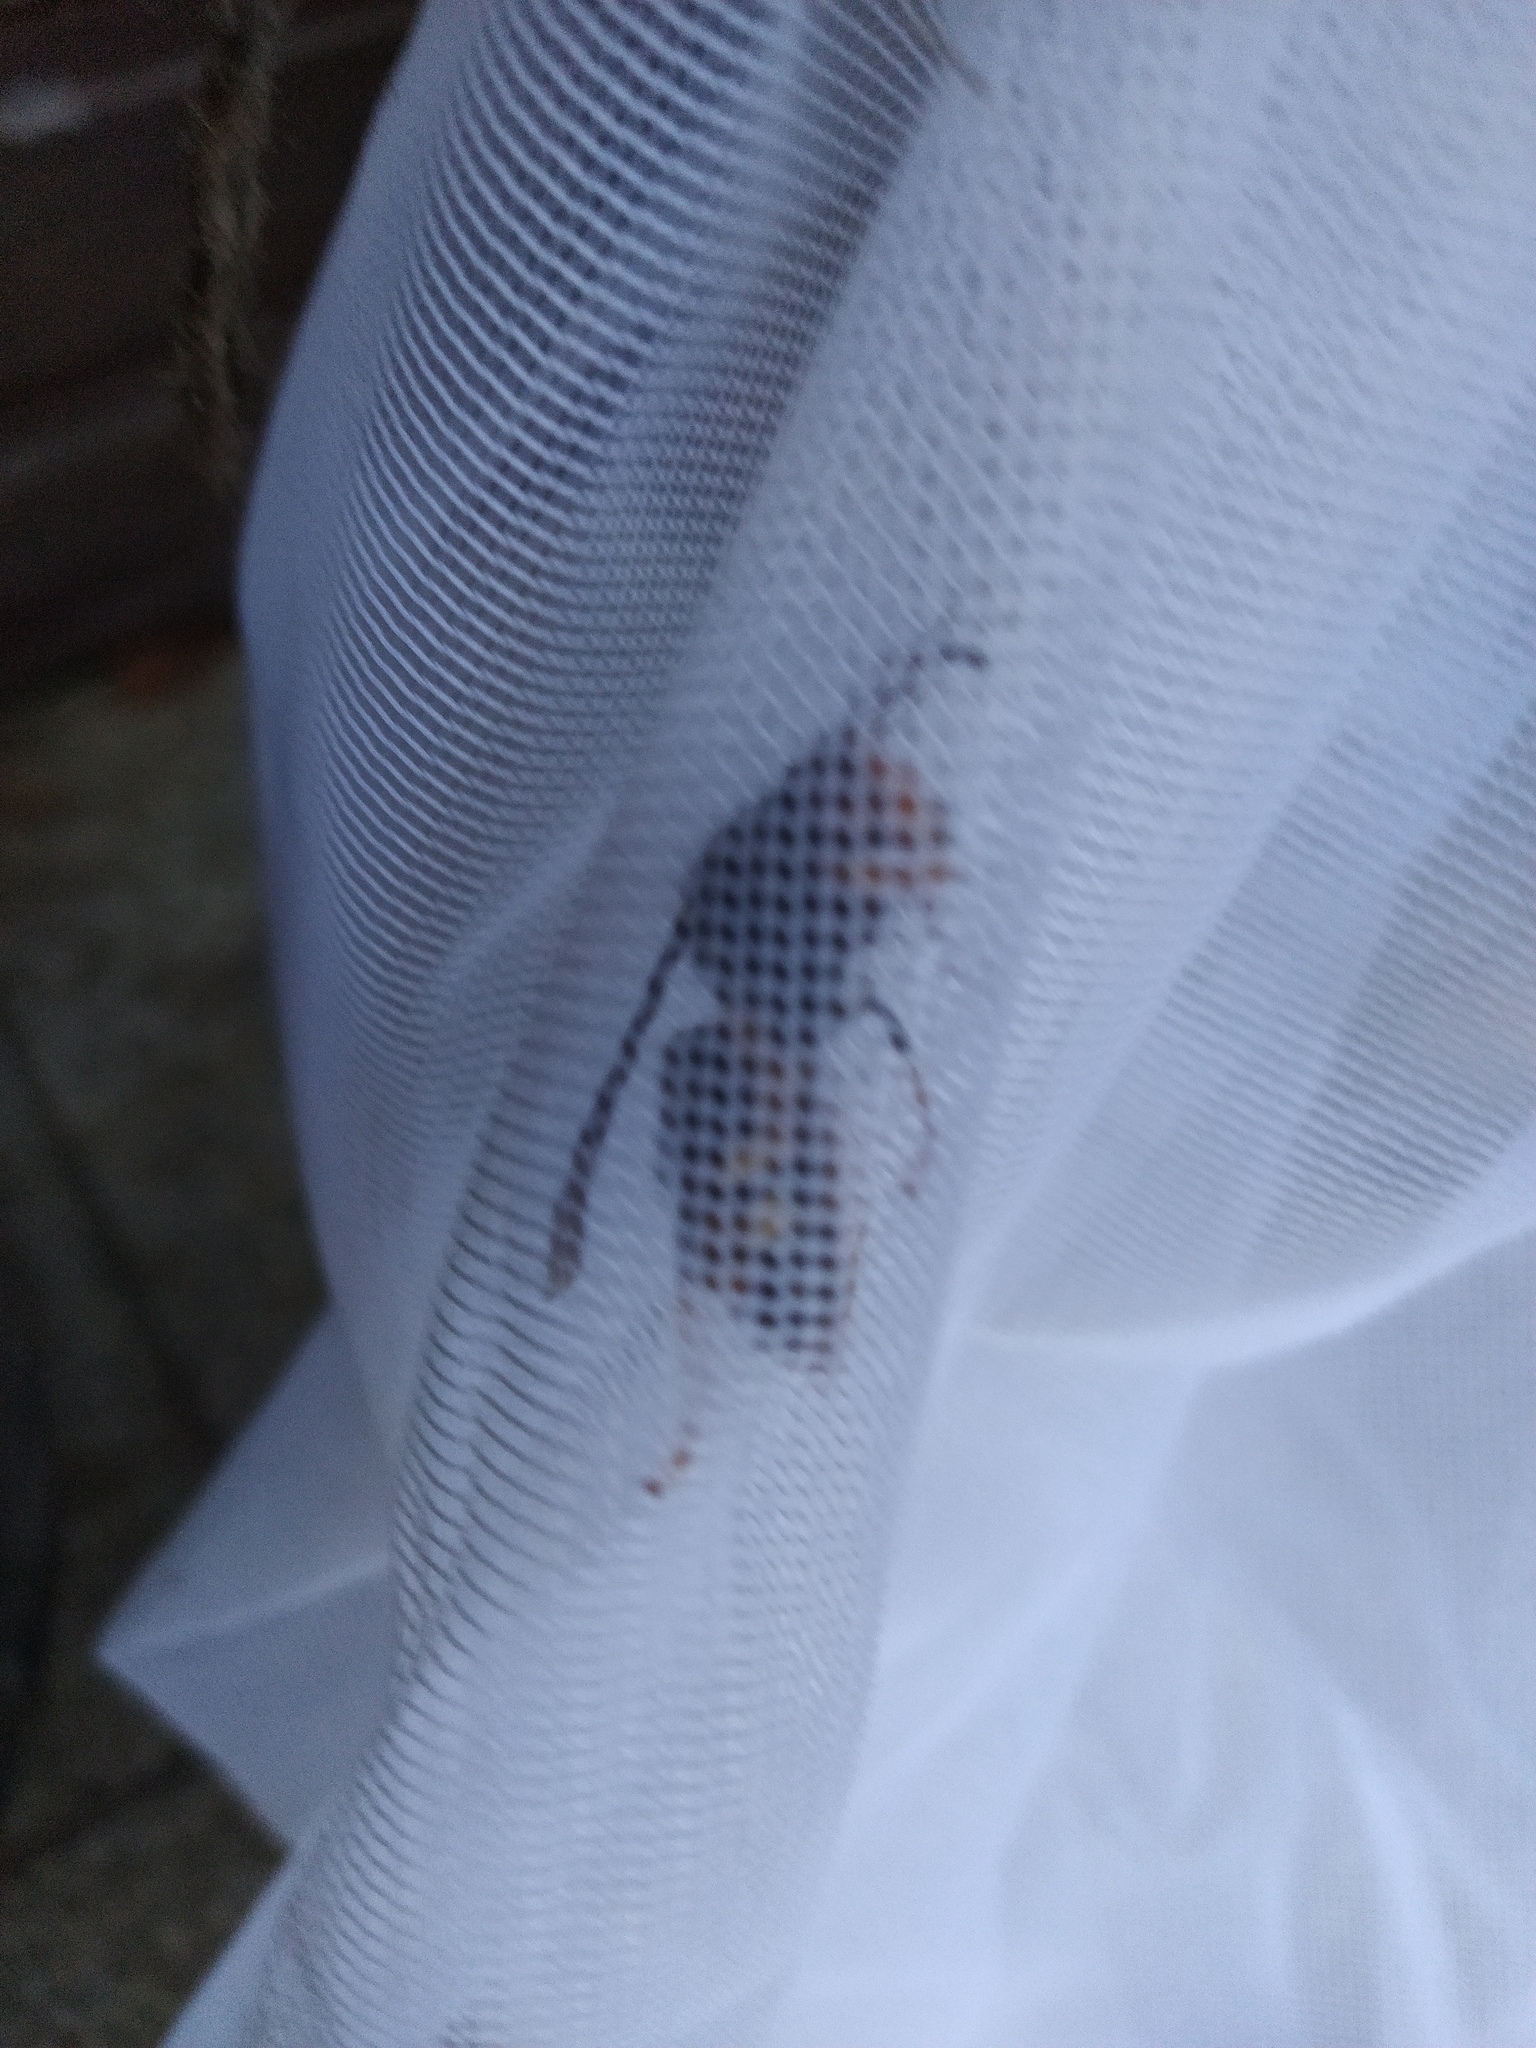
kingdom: Animalia
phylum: Arthropoda
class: Insecta
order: Hymenoptera
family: Vespidae
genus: Vespa
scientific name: Vespa velutina
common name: Asian hornet
